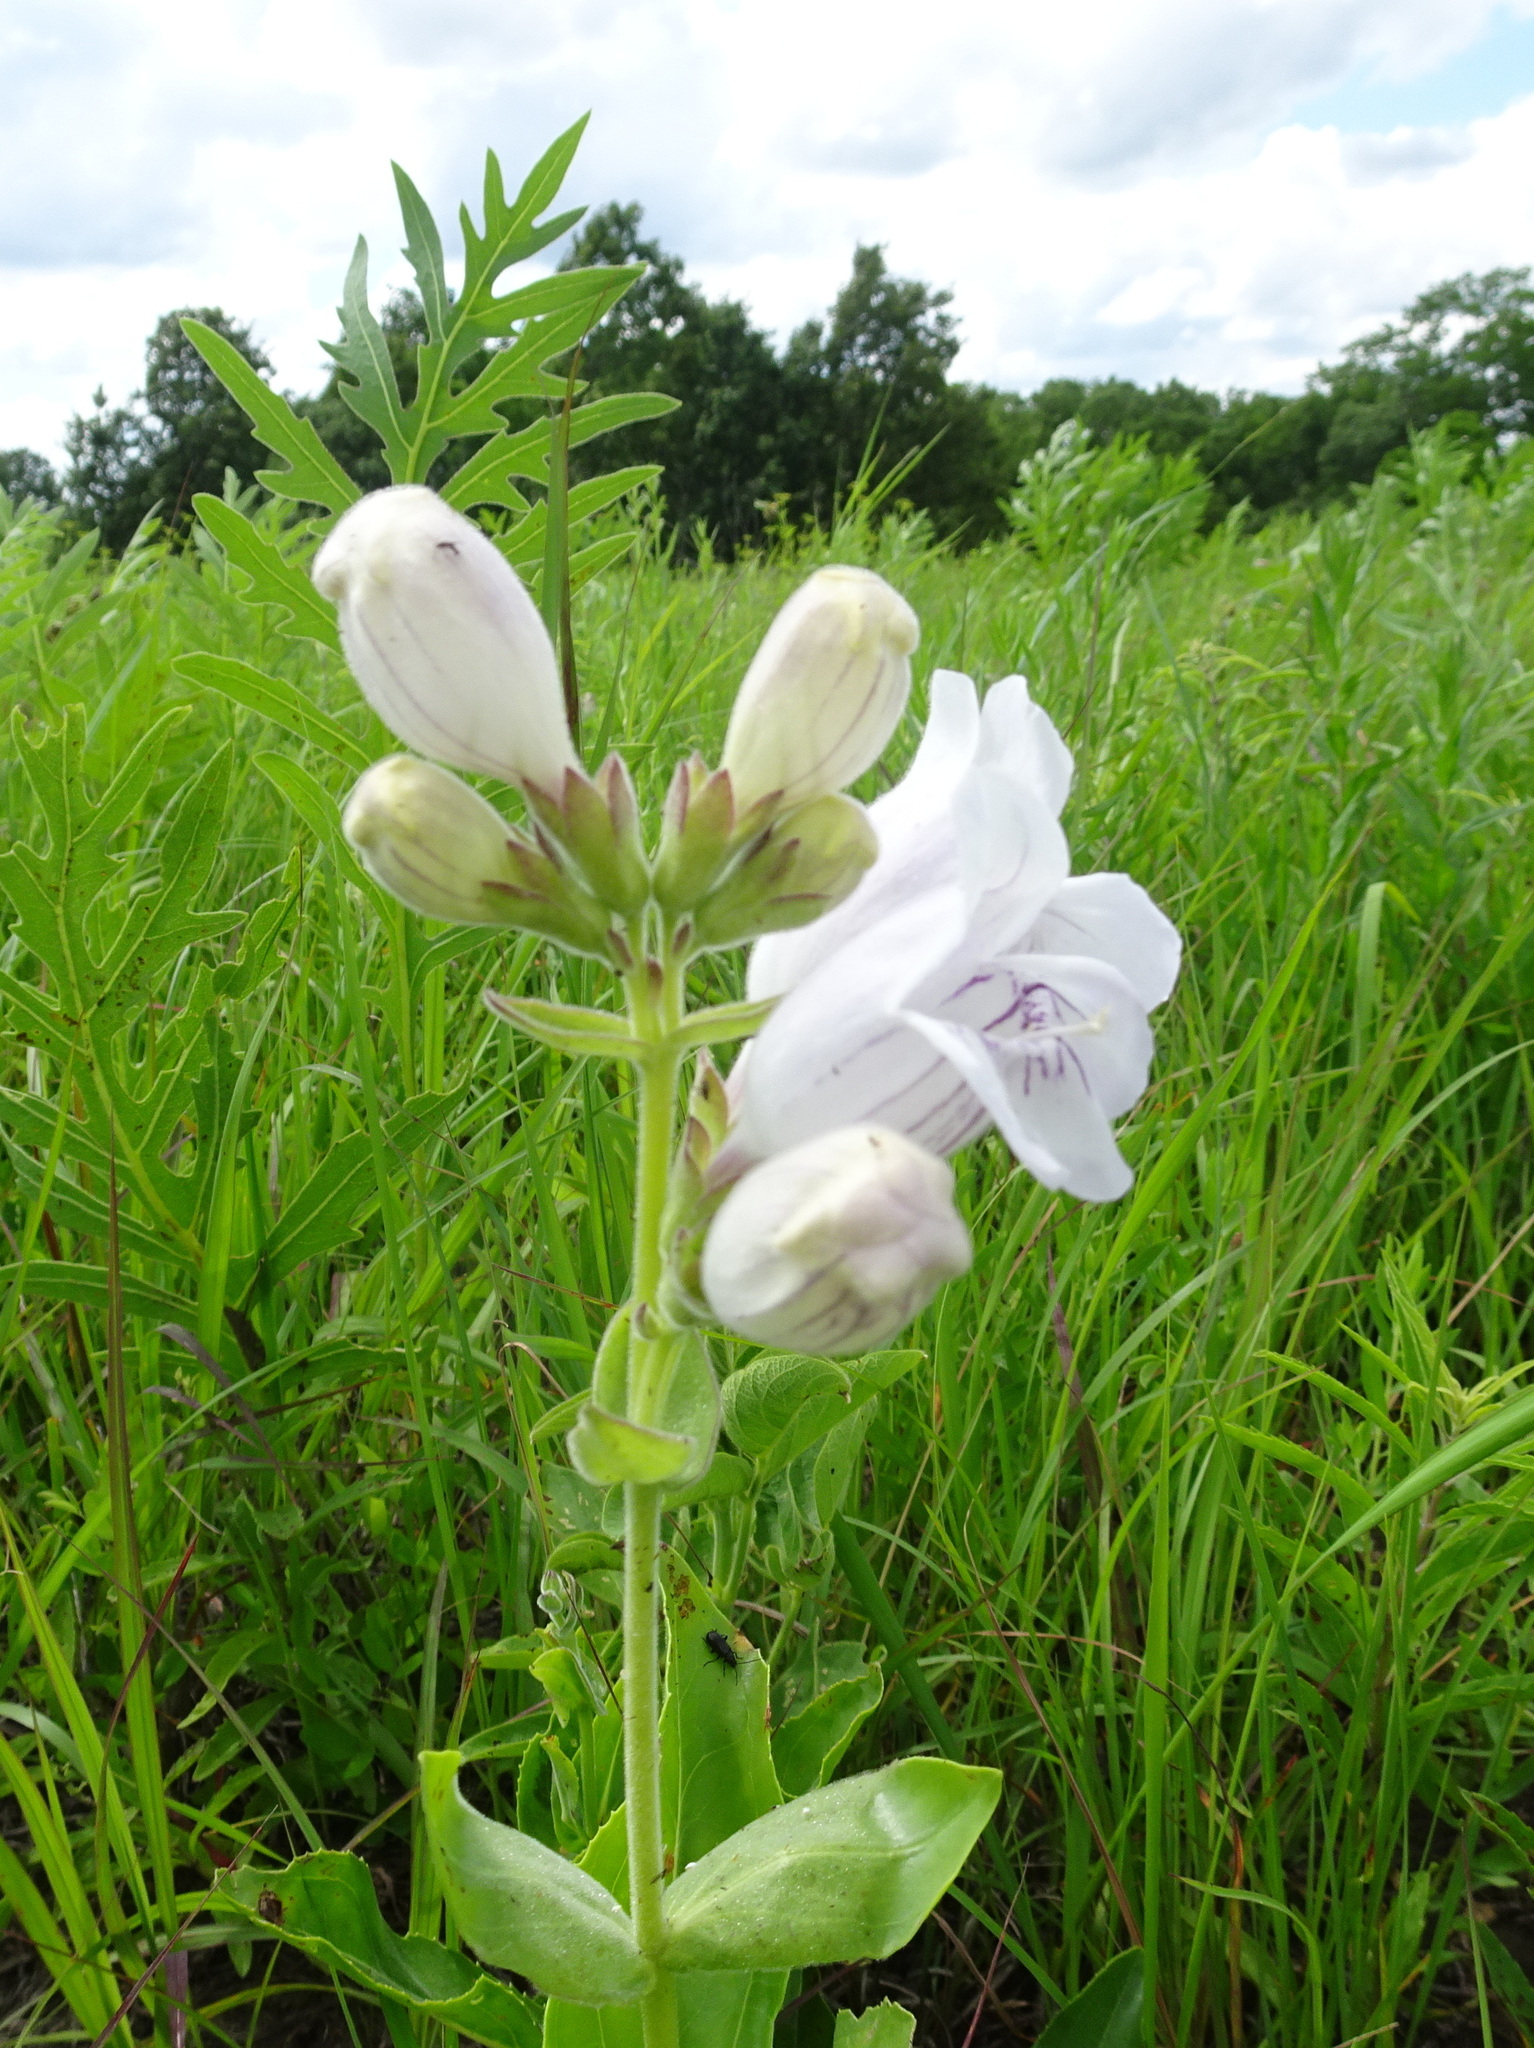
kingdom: Plantae
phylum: Tracheophyta
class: Magnoliopsida
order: Lamiales
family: Plantaginaceae
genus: Penstemon
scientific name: Penstemon cobaea
